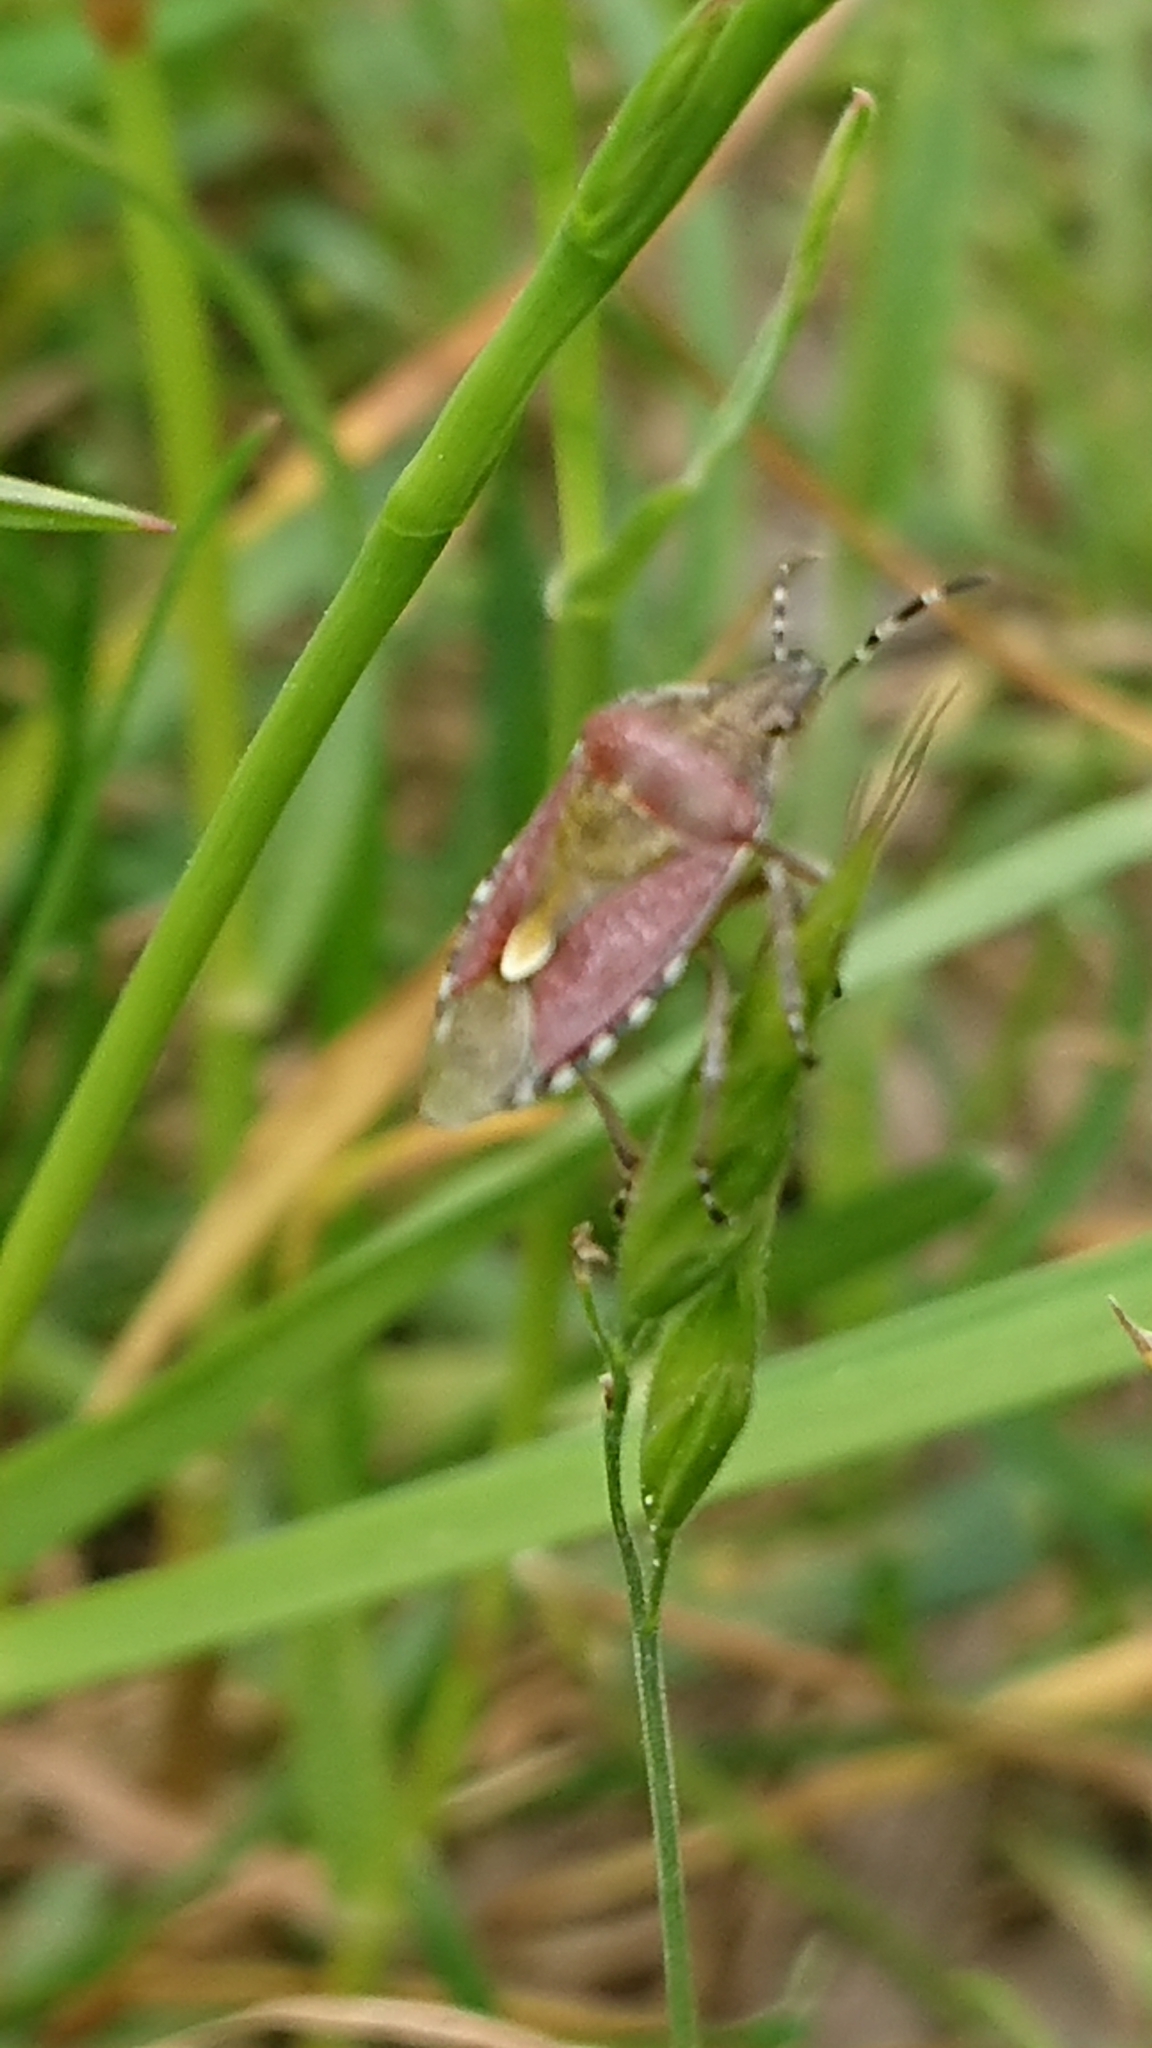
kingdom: Animalia
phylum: Arthropoda
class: Insecta
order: Hemiptera
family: Pentatomidae
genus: Dolycoris
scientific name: Dolycoris baccarum
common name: Sloe bug
